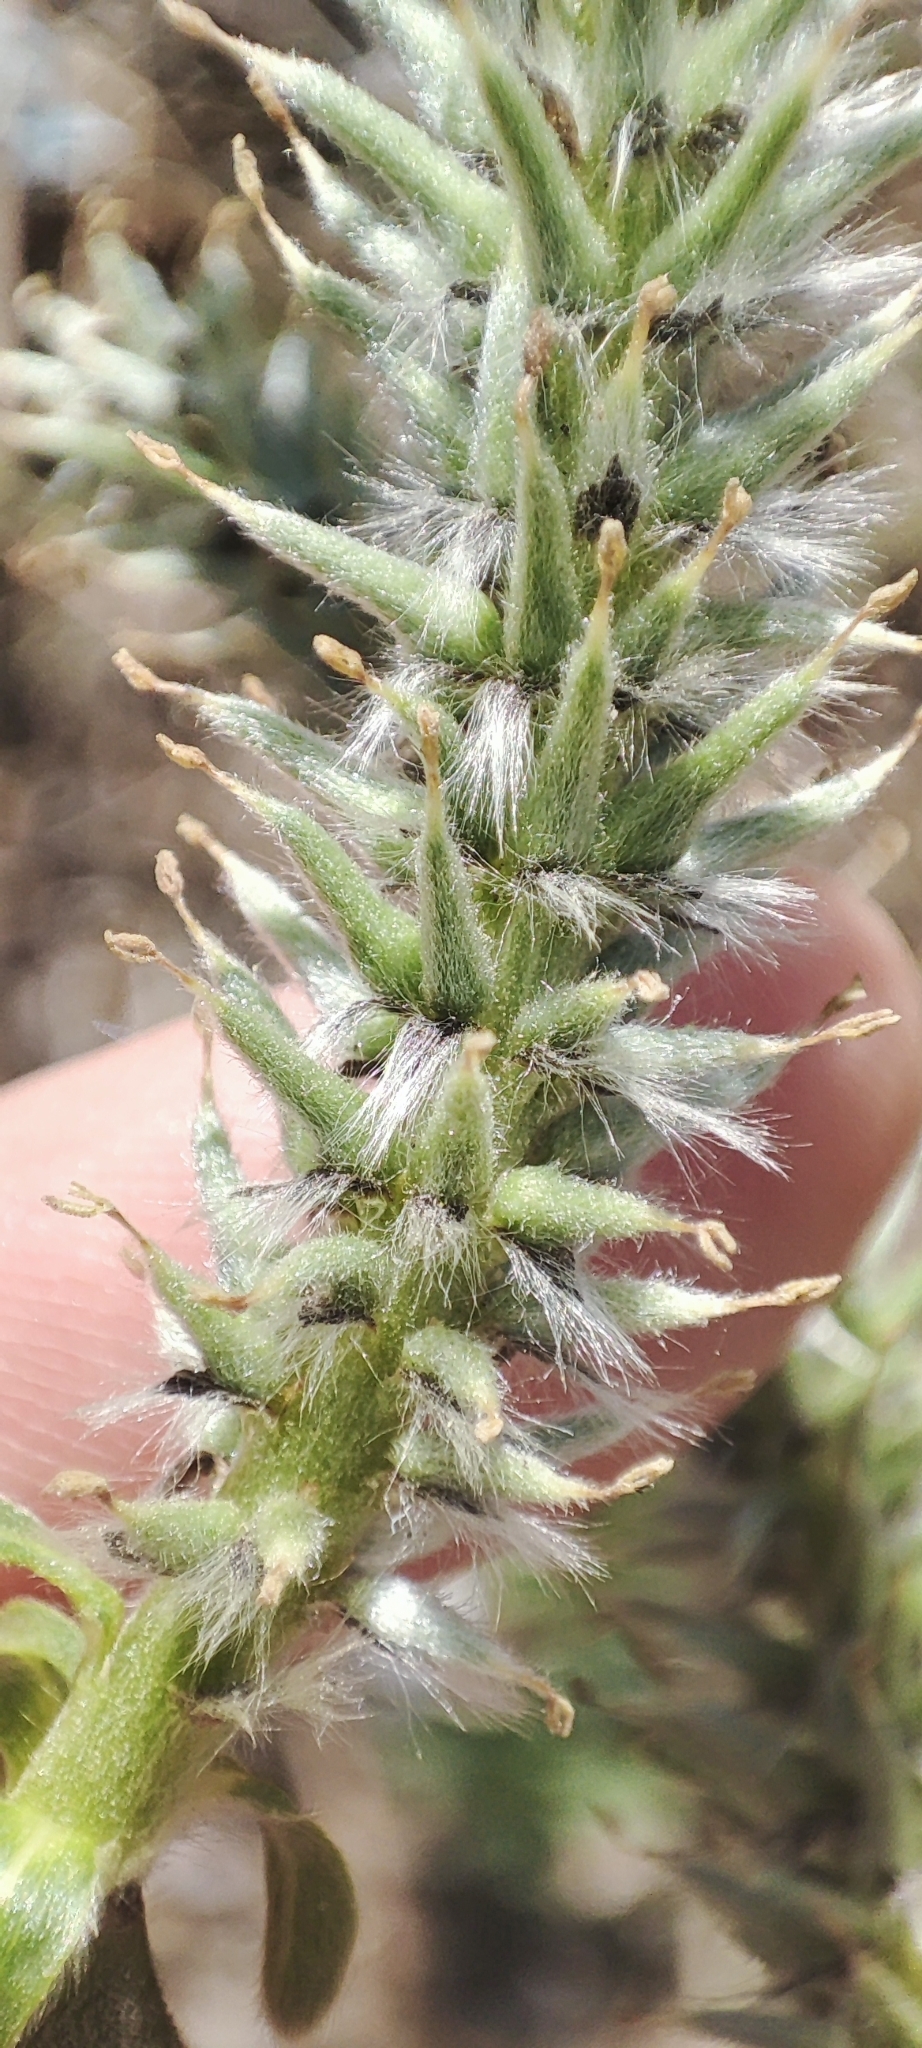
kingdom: Plantae
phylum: Tracheophyta
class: Magnoliopsida
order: Malpighiales
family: Salicaceae
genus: Salix
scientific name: Salix gmelinii
